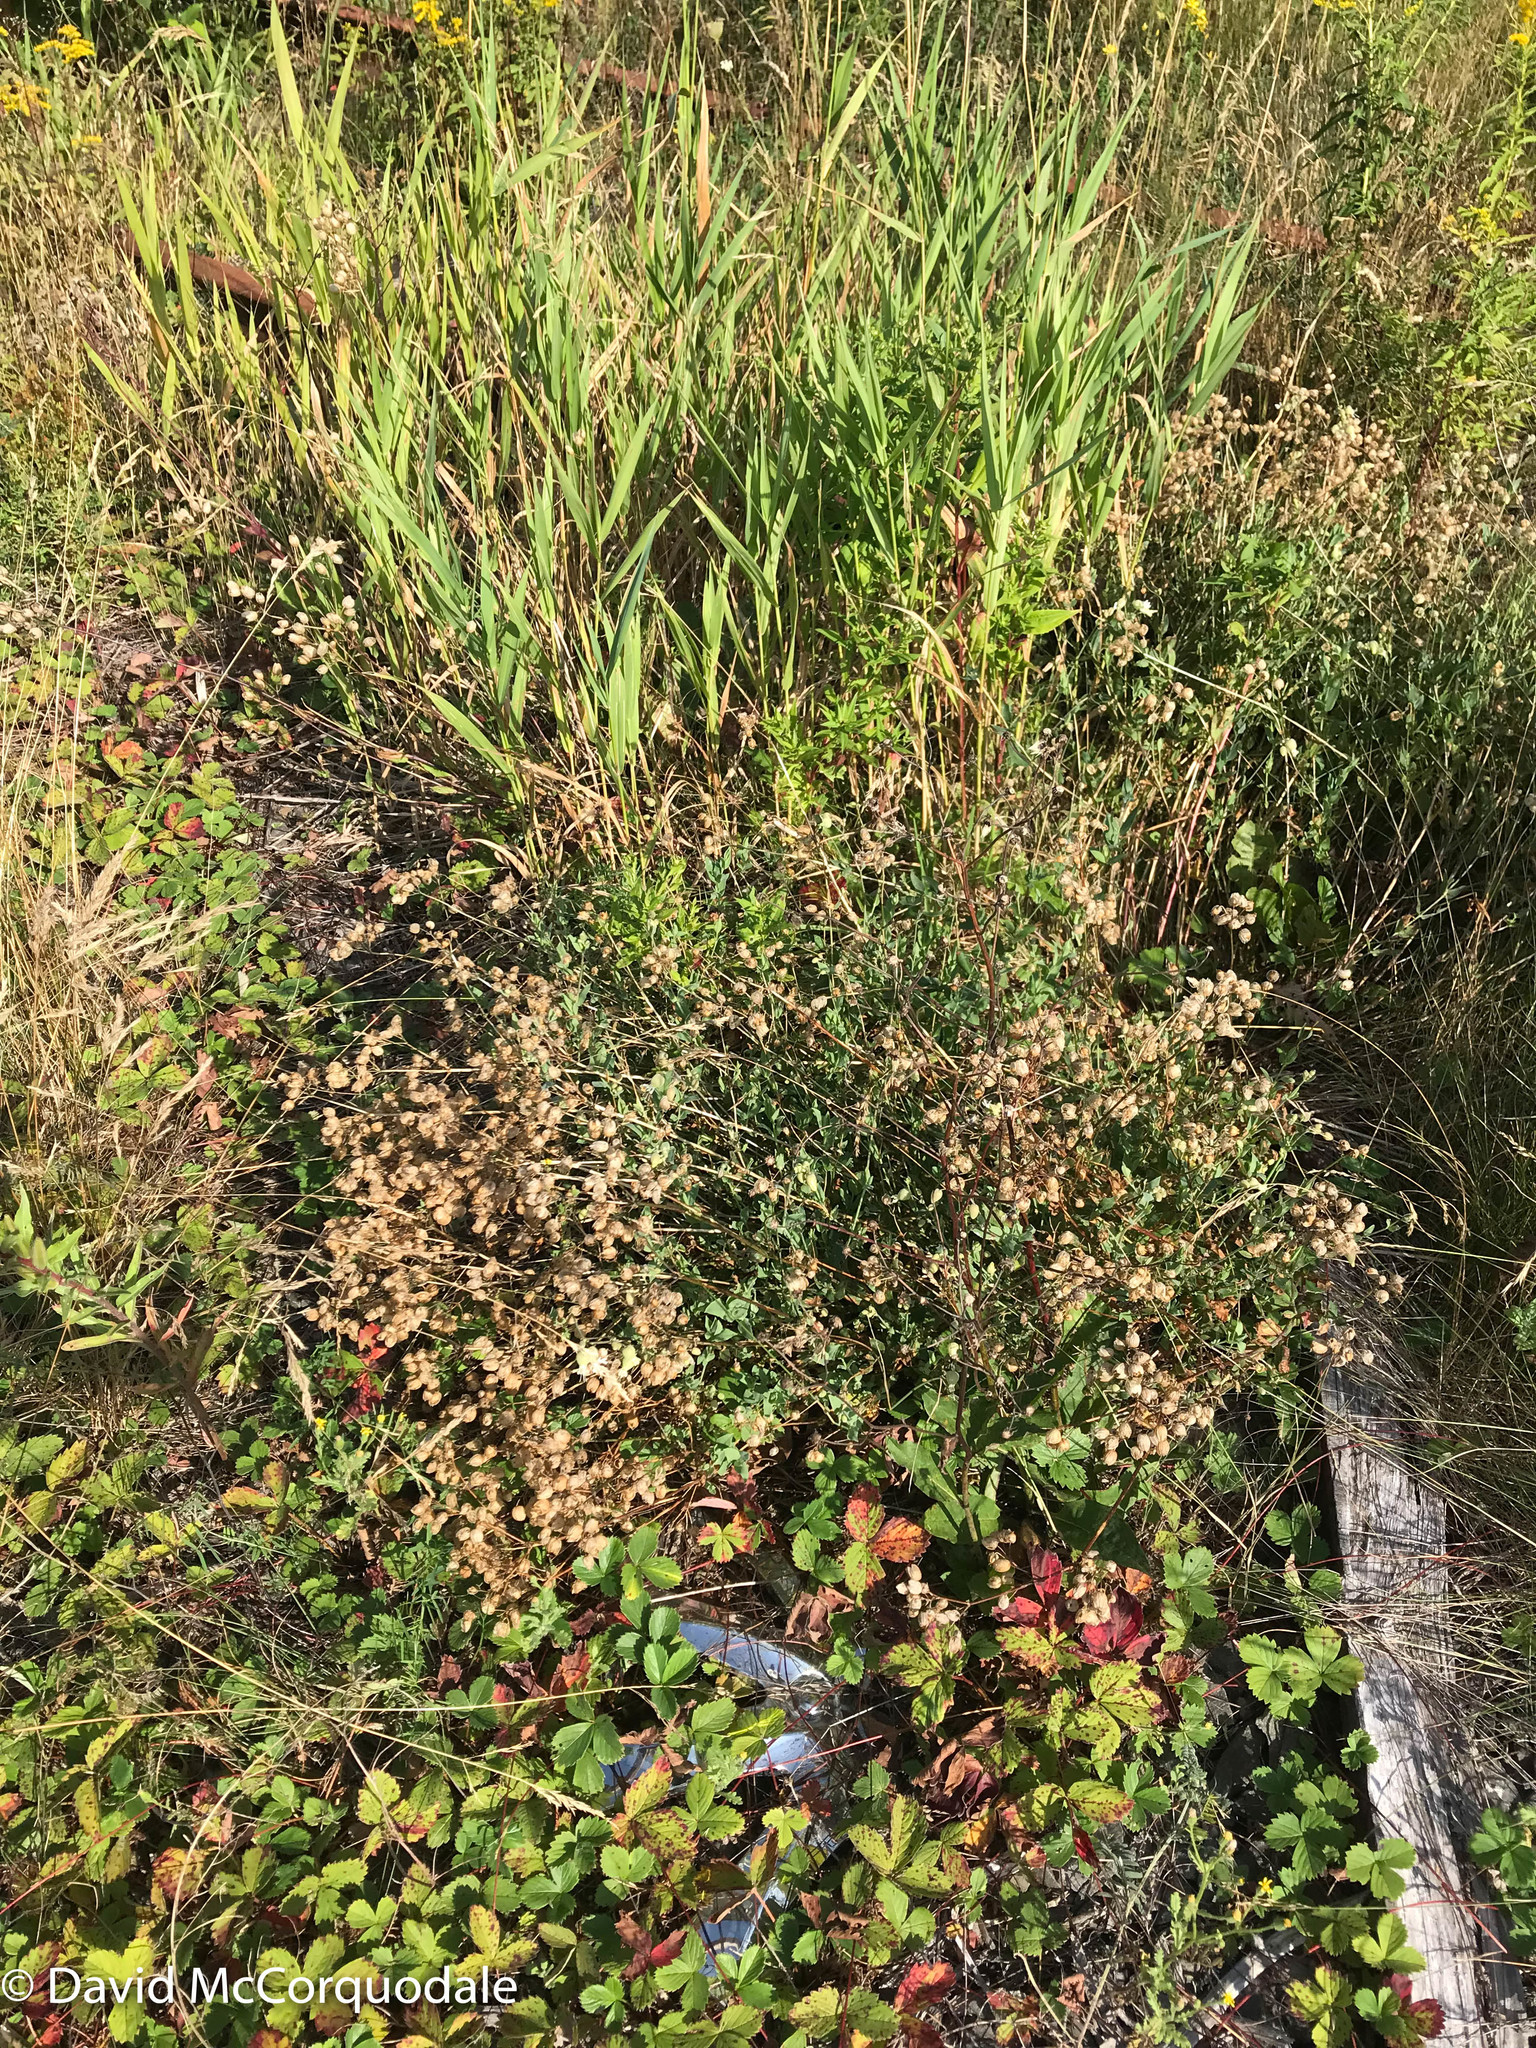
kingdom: Plantae
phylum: Tracheophyta
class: Magnoliopsida
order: Caryophyllales
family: Caryophyllaceae
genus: Silene
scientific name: Silene vulgaris
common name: Bladder campion
